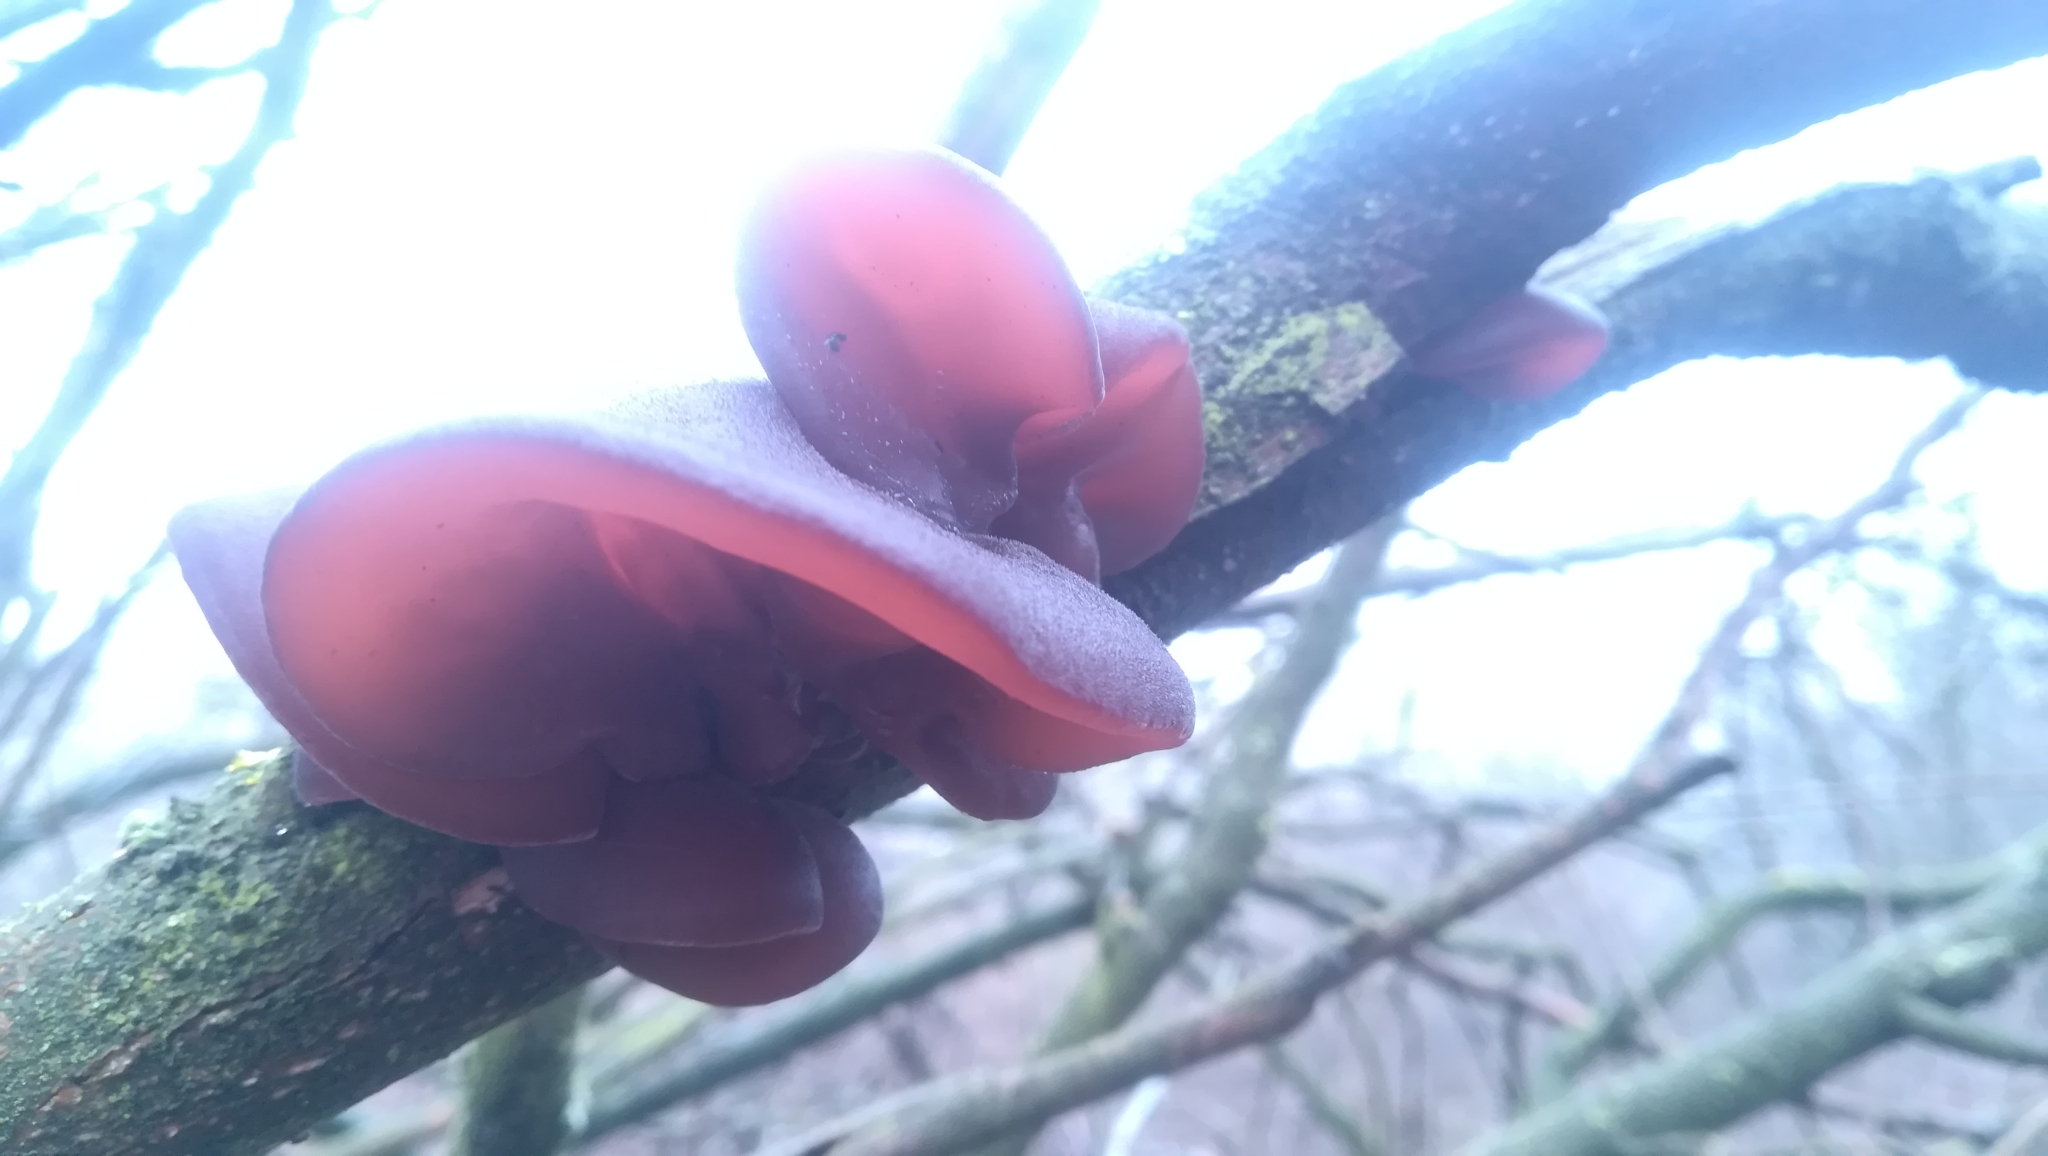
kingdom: Fungi
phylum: Basidiomycota
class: Agaricomycetes
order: Auriculariales
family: Auriculariaceae
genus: Auricularia
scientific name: Auricularia auricula-judae
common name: Jelly ear
